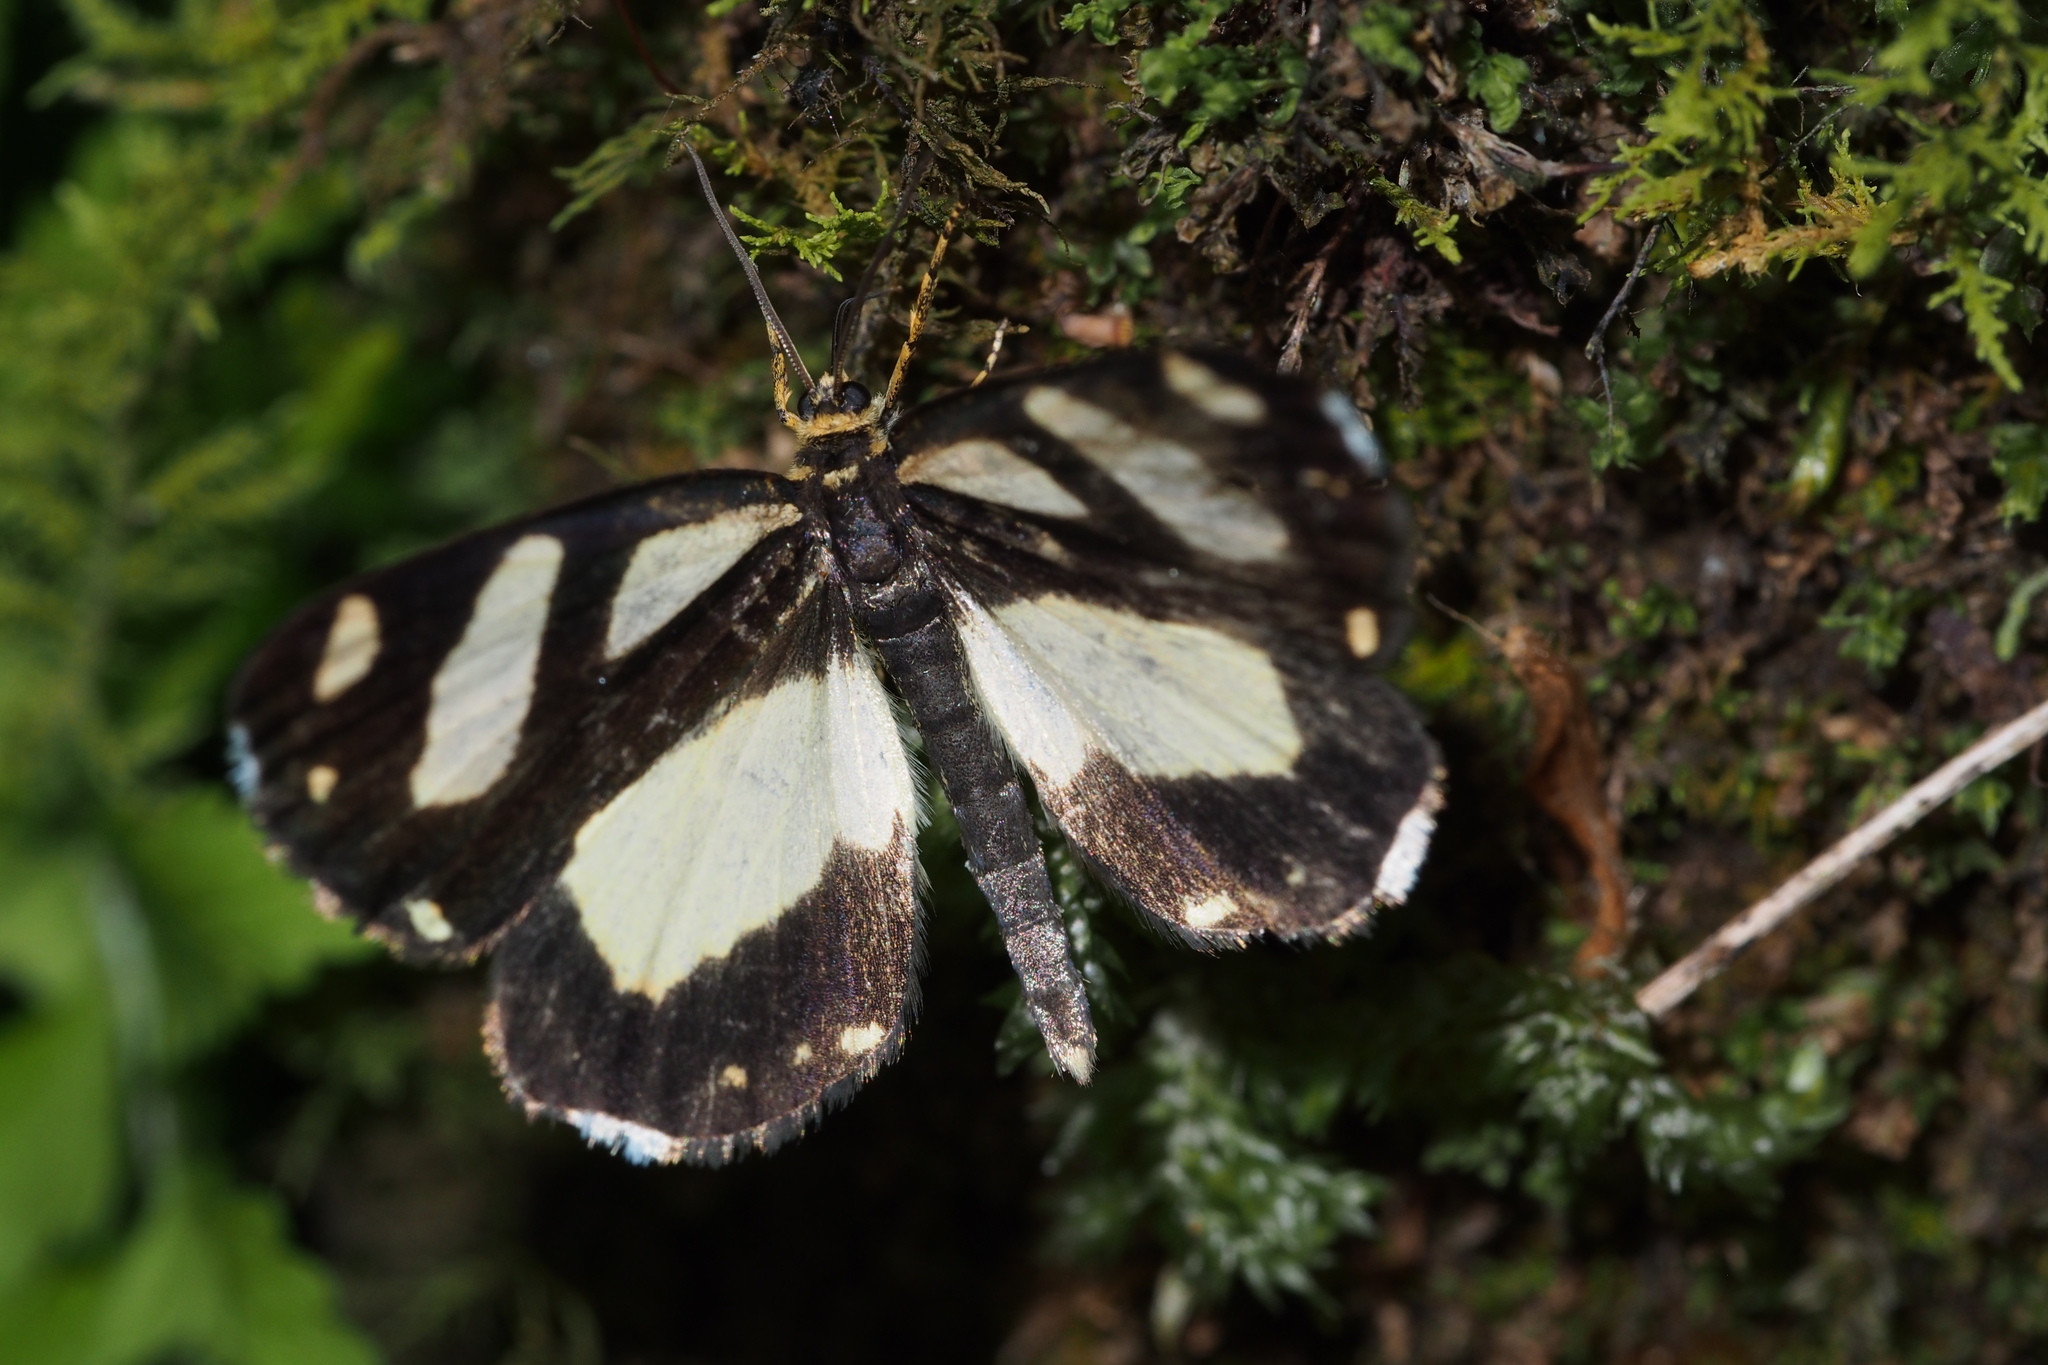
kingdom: Animalia
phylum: Arthropoda
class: Insecta
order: Lepidoptera
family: Epicopeiidae
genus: Psychostrophia
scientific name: Psychostrophia melanargia
